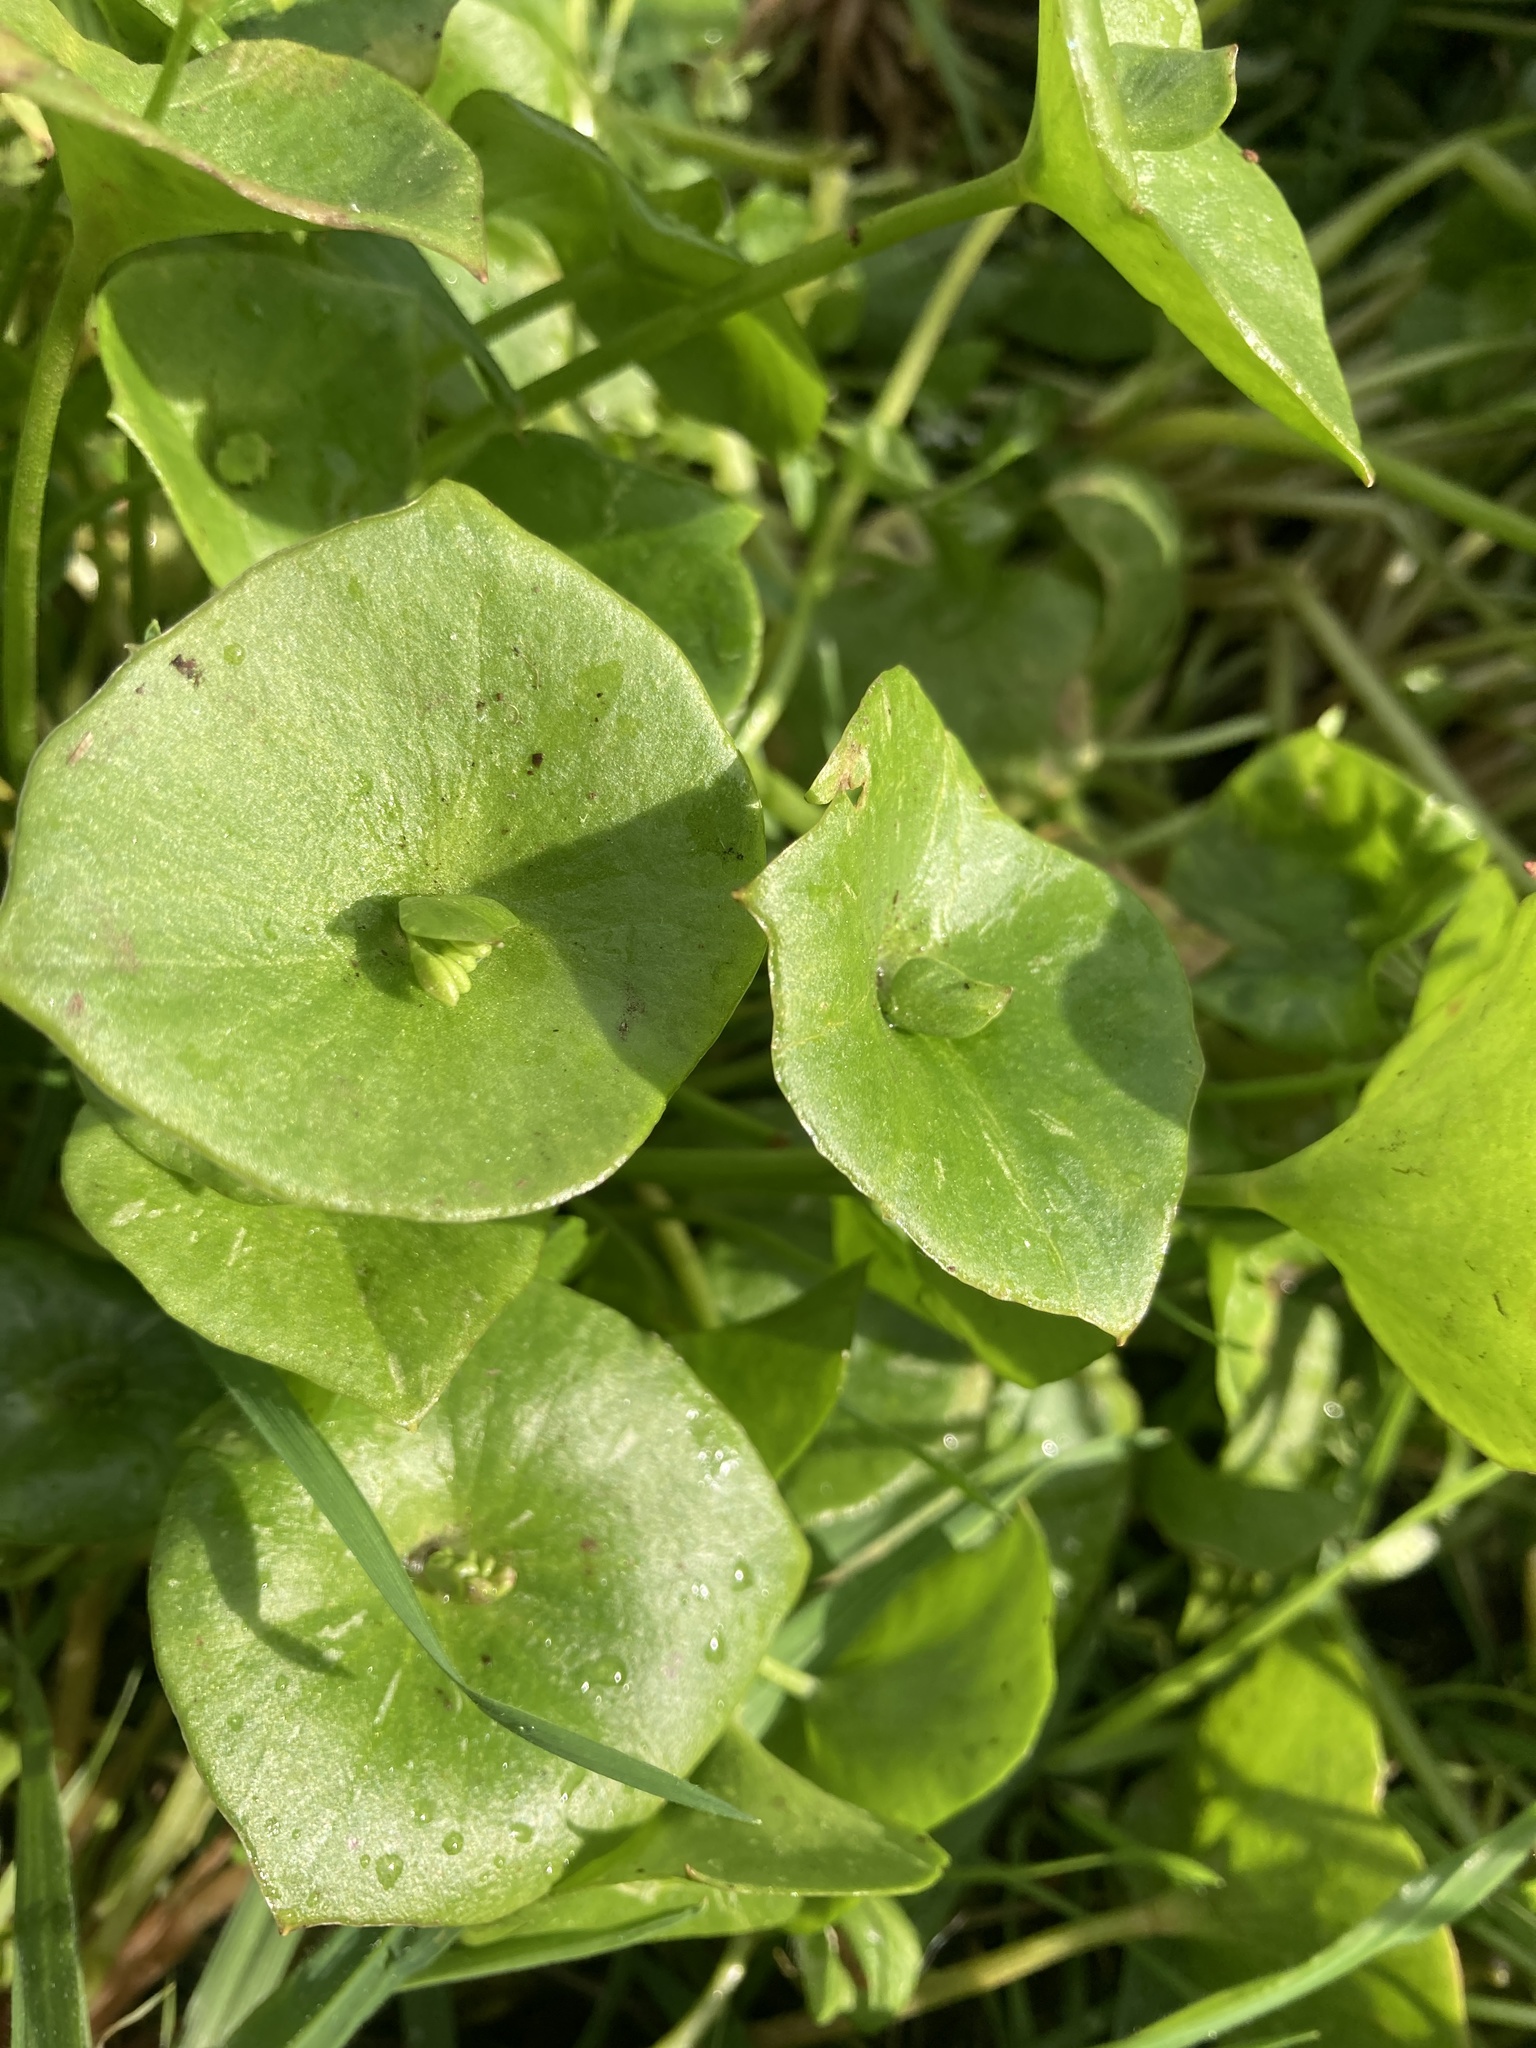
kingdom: Plantae
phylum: Tracheophyta
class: Magnoliopsida
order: Caryophyllales
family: Montiaceae
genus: Claytonia
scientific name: Claytonia perfoliata
